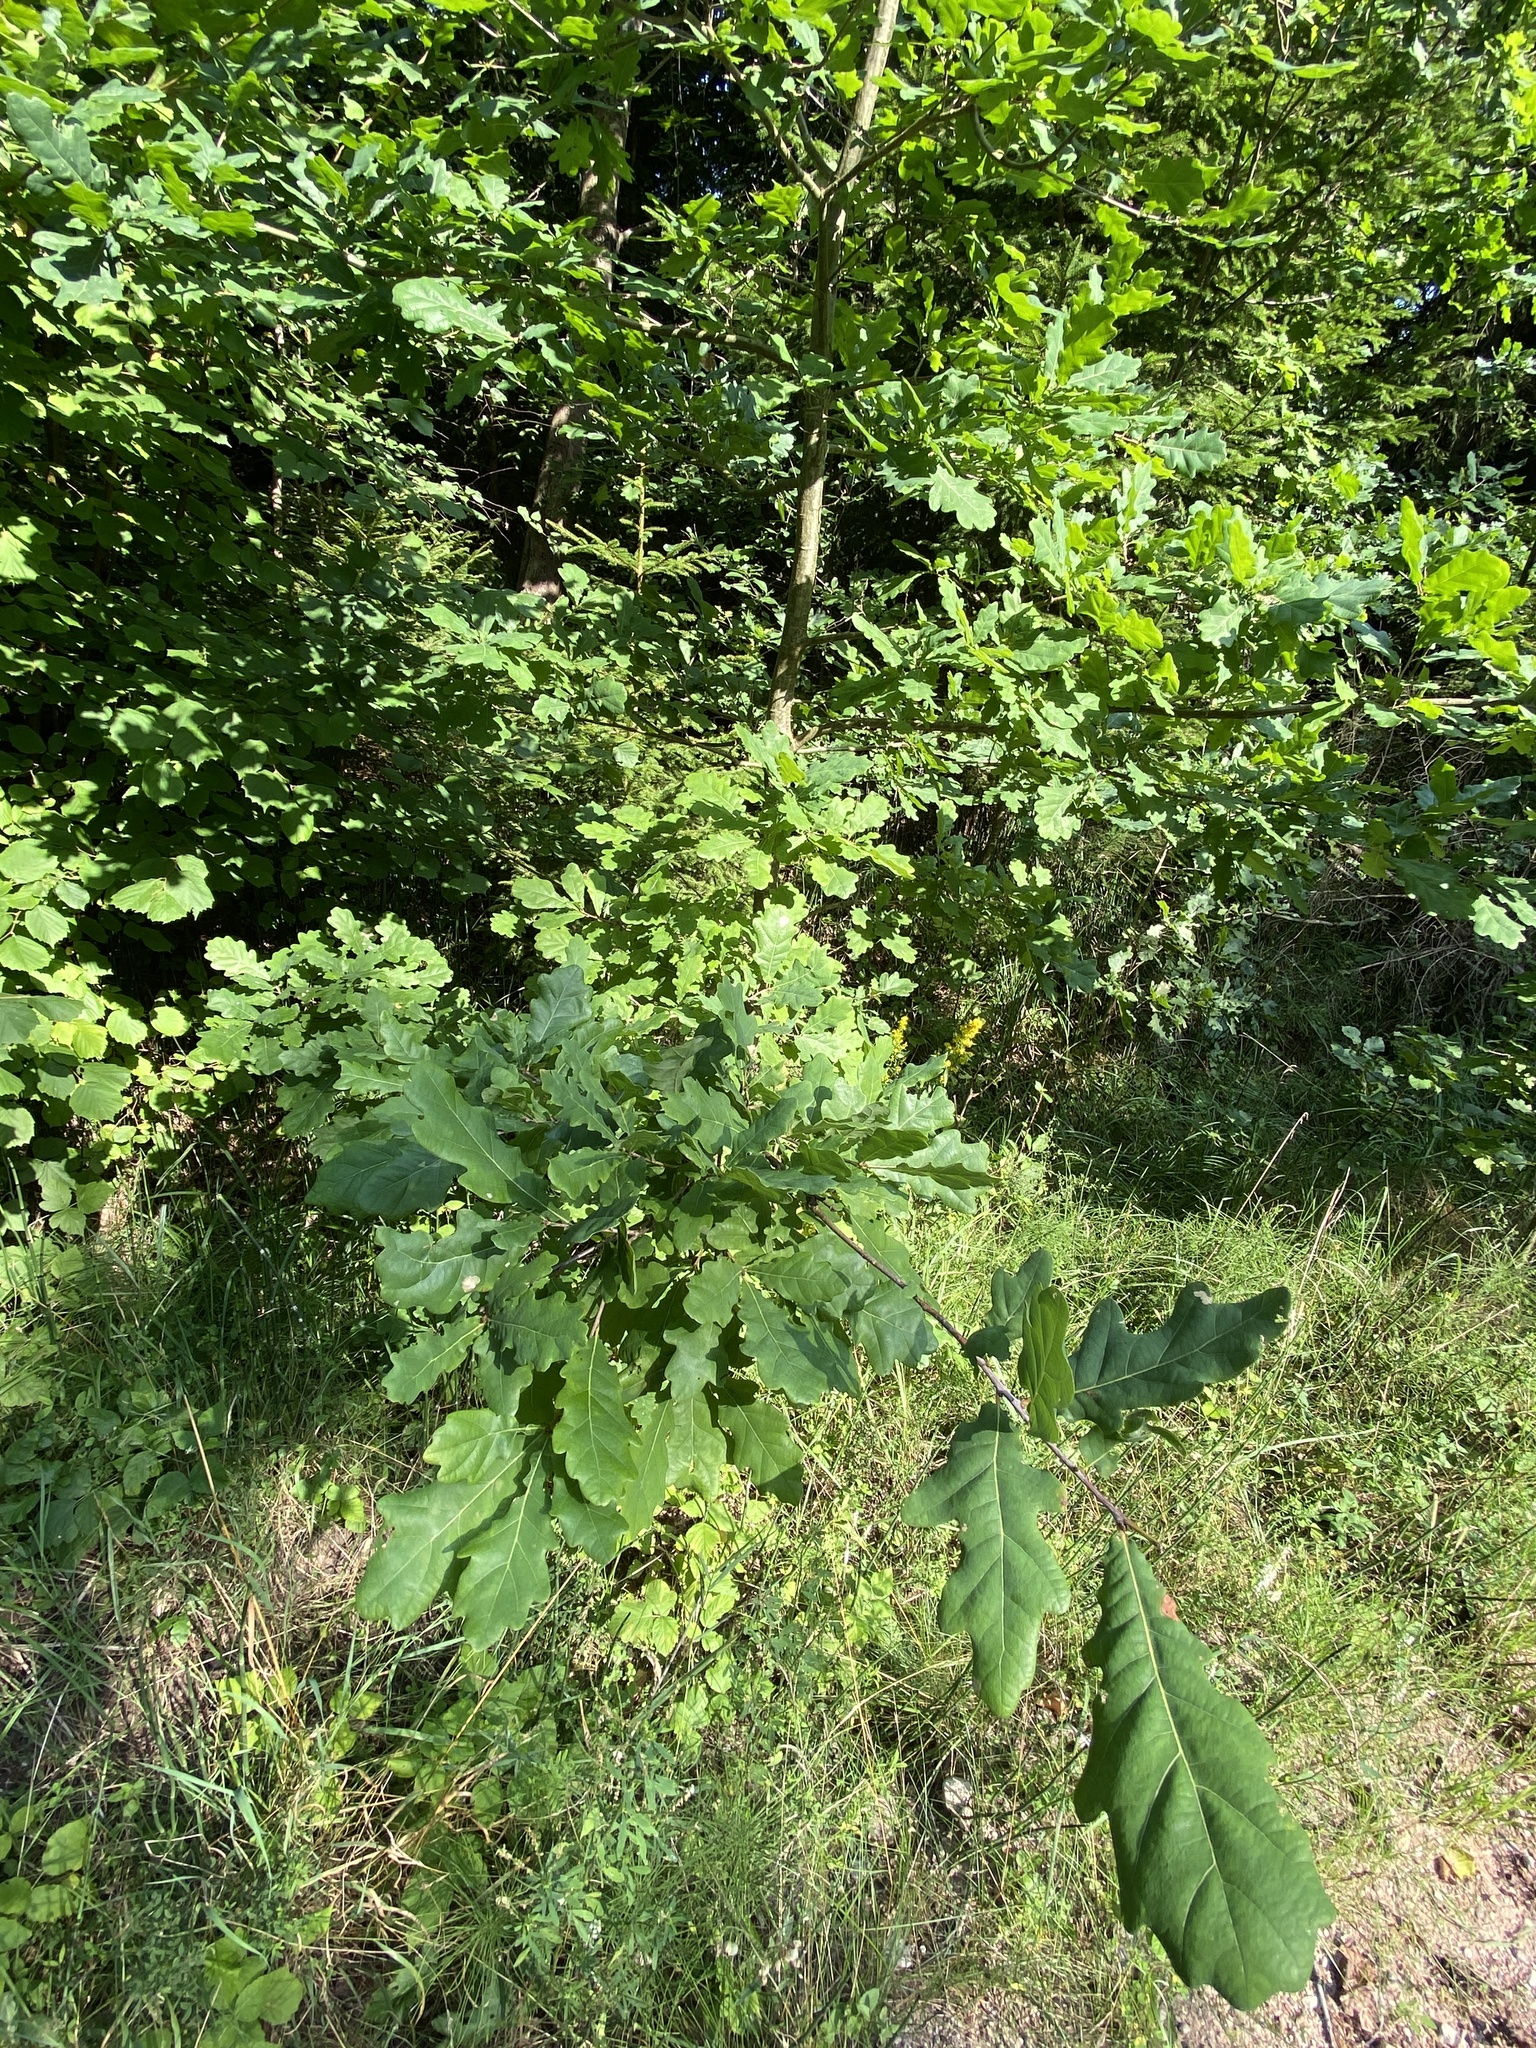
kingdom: Plantae
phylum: Tracheophyta
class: Magnoliopsida
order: Fagales
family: Fagaceae
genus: Quercus
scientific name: Quercus robur
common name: Pedunculate oak
